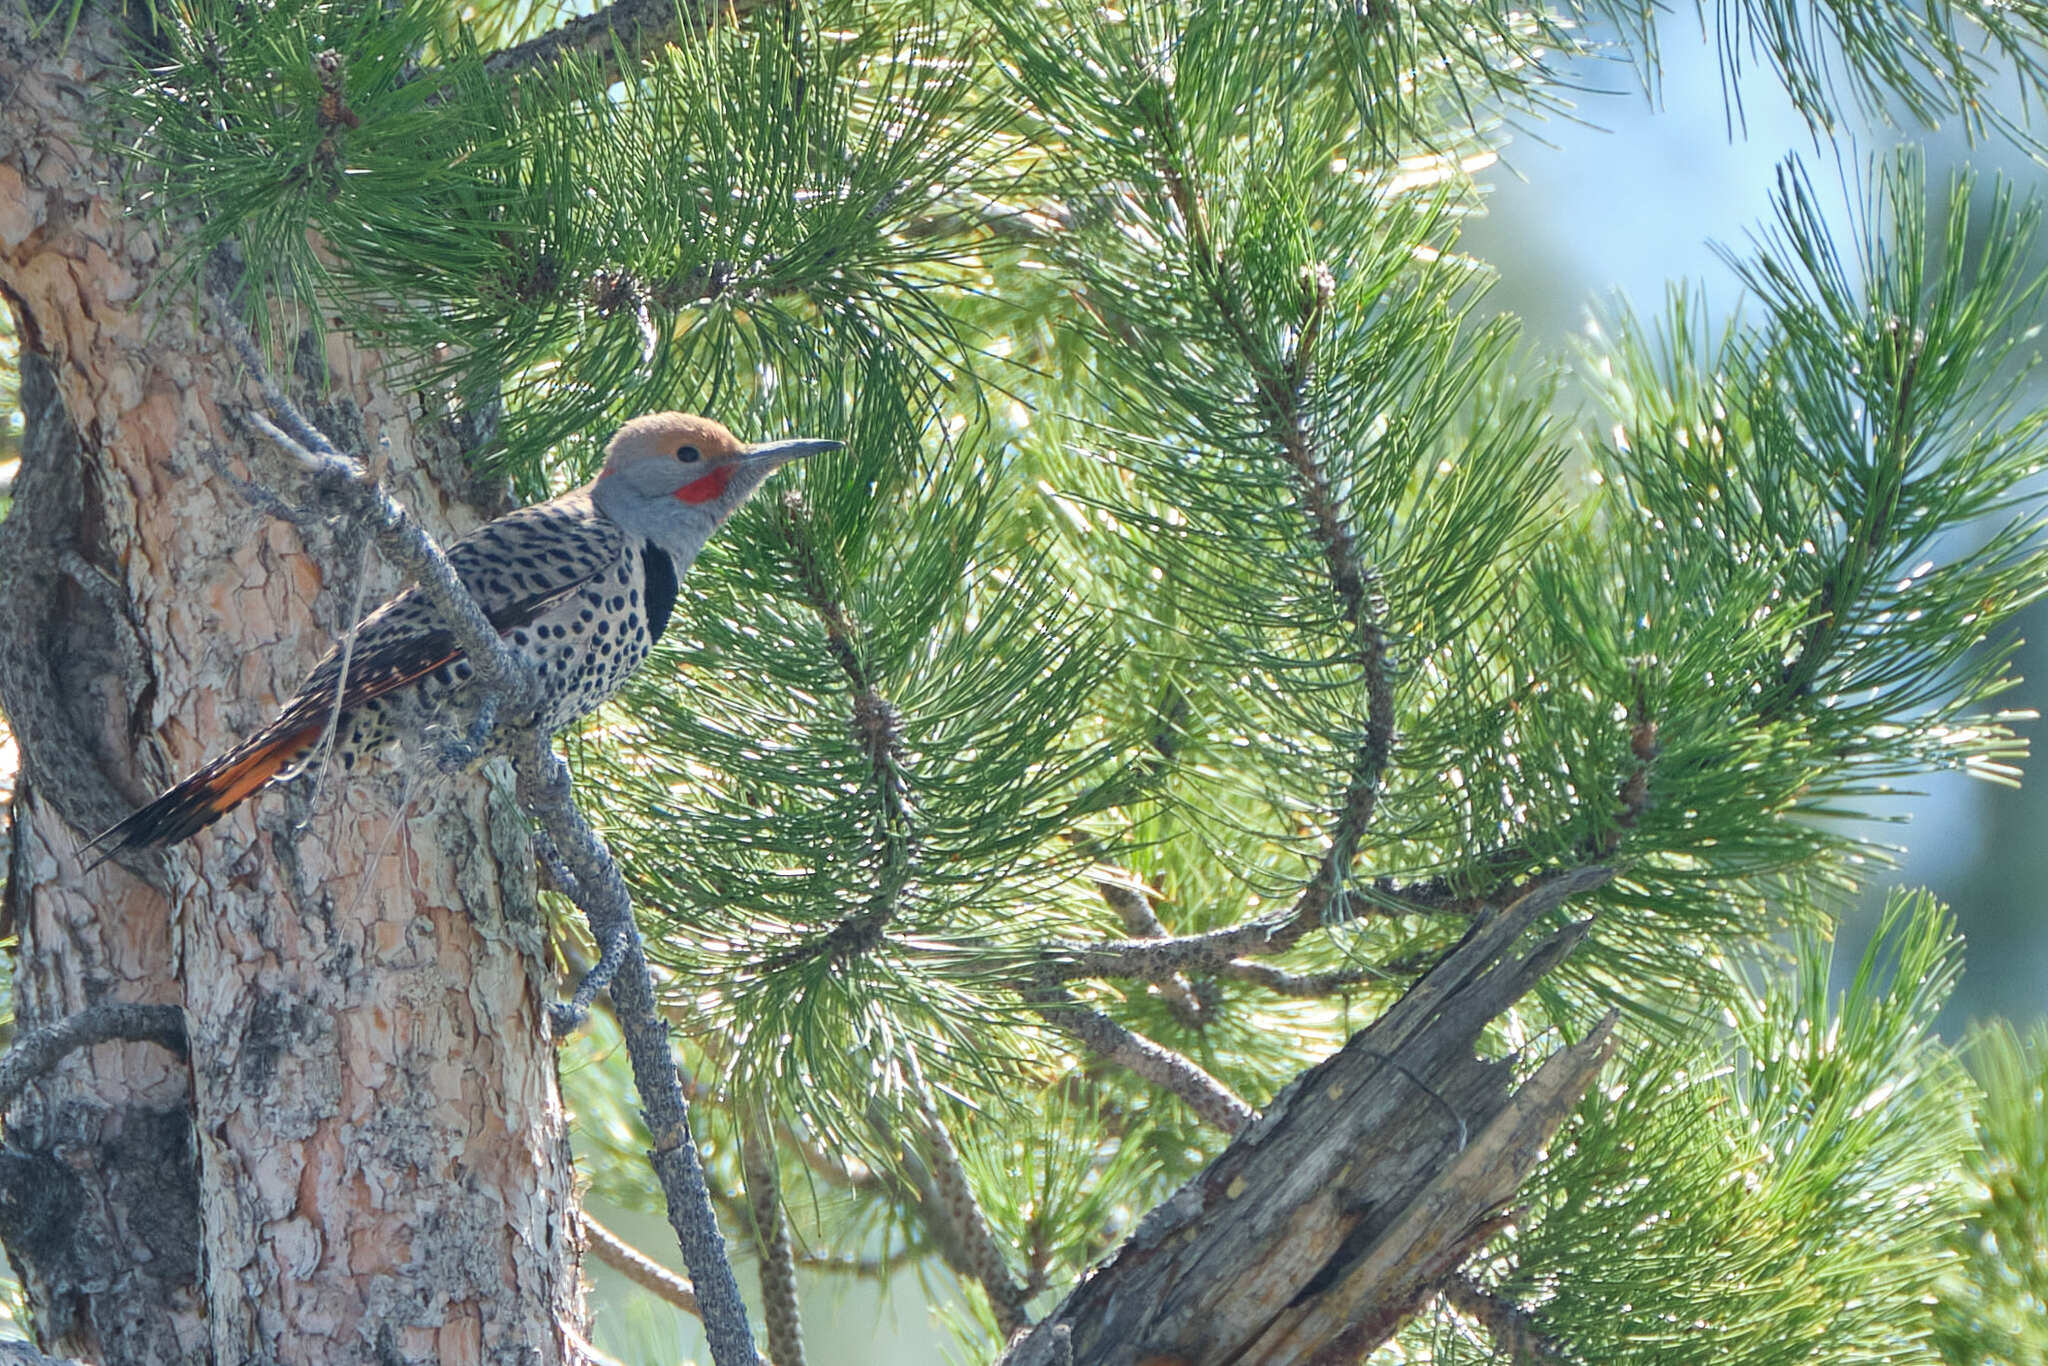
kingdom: Animalia
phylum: Chordata
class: Aves
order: Piciformes
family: Picidae
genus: Colaptes
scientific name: Colaptes auratus
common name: Northern flicker
